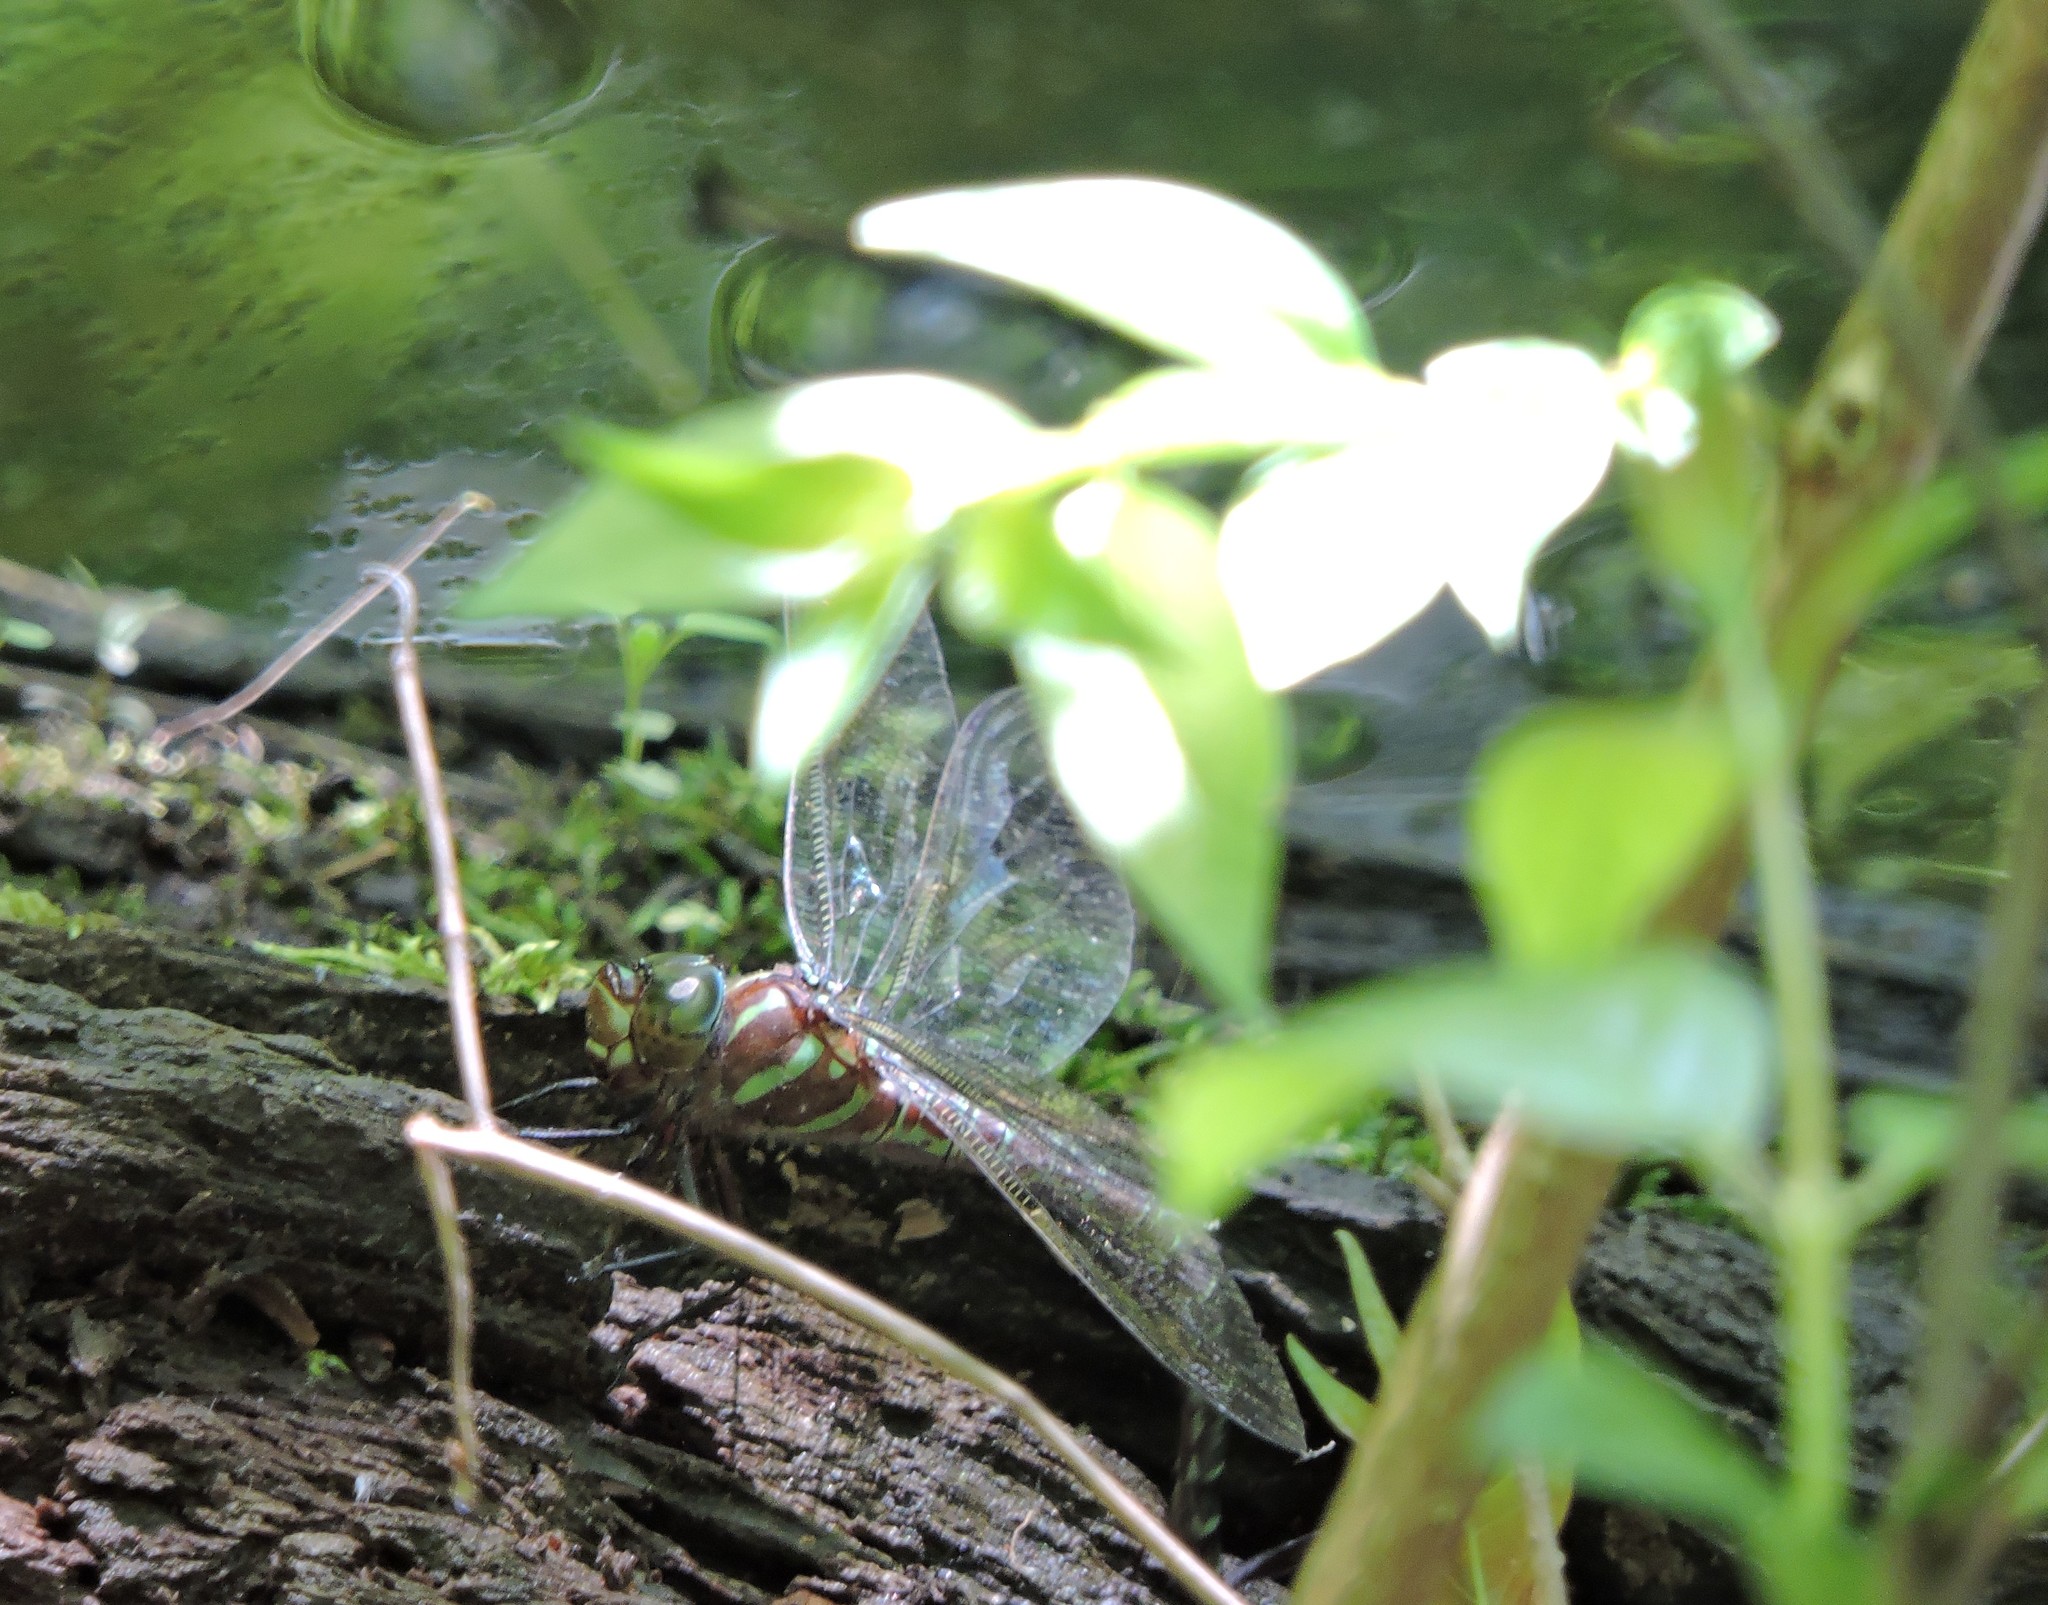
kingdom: Animalia
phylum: Arthropoda
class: Insecta
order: Odonata
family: Aeshnidae
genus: Epiaeschna
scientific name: Epiaeschna heros
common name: Swamp darner
